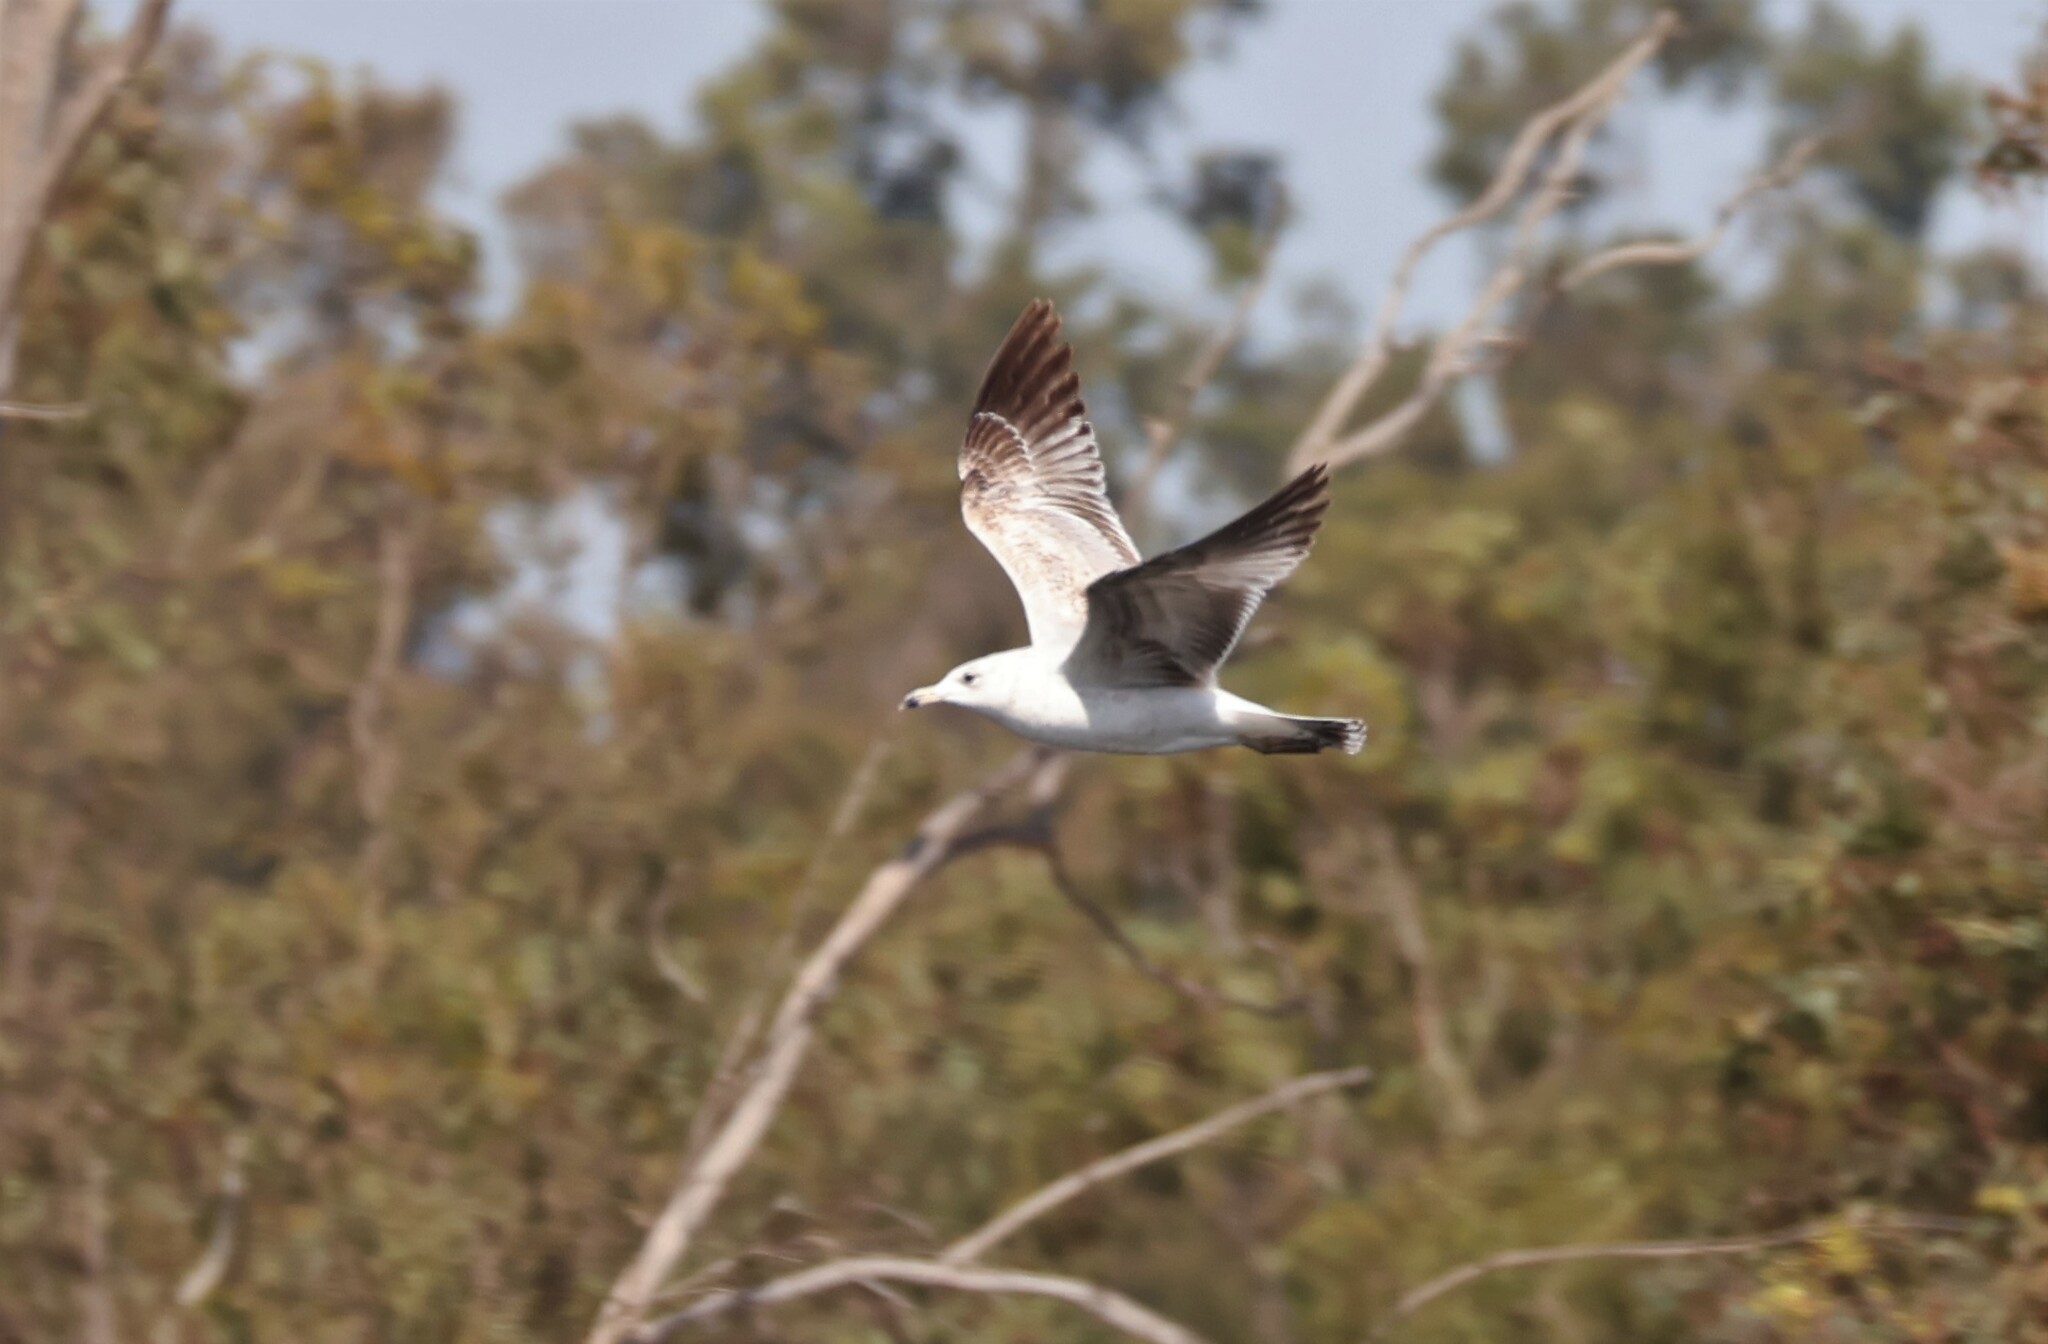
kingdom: Animalia
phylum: Chordata
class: Aves
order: Charadriiformes
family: Laridae
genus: Larus
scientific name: Larus californicus
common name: California gull
